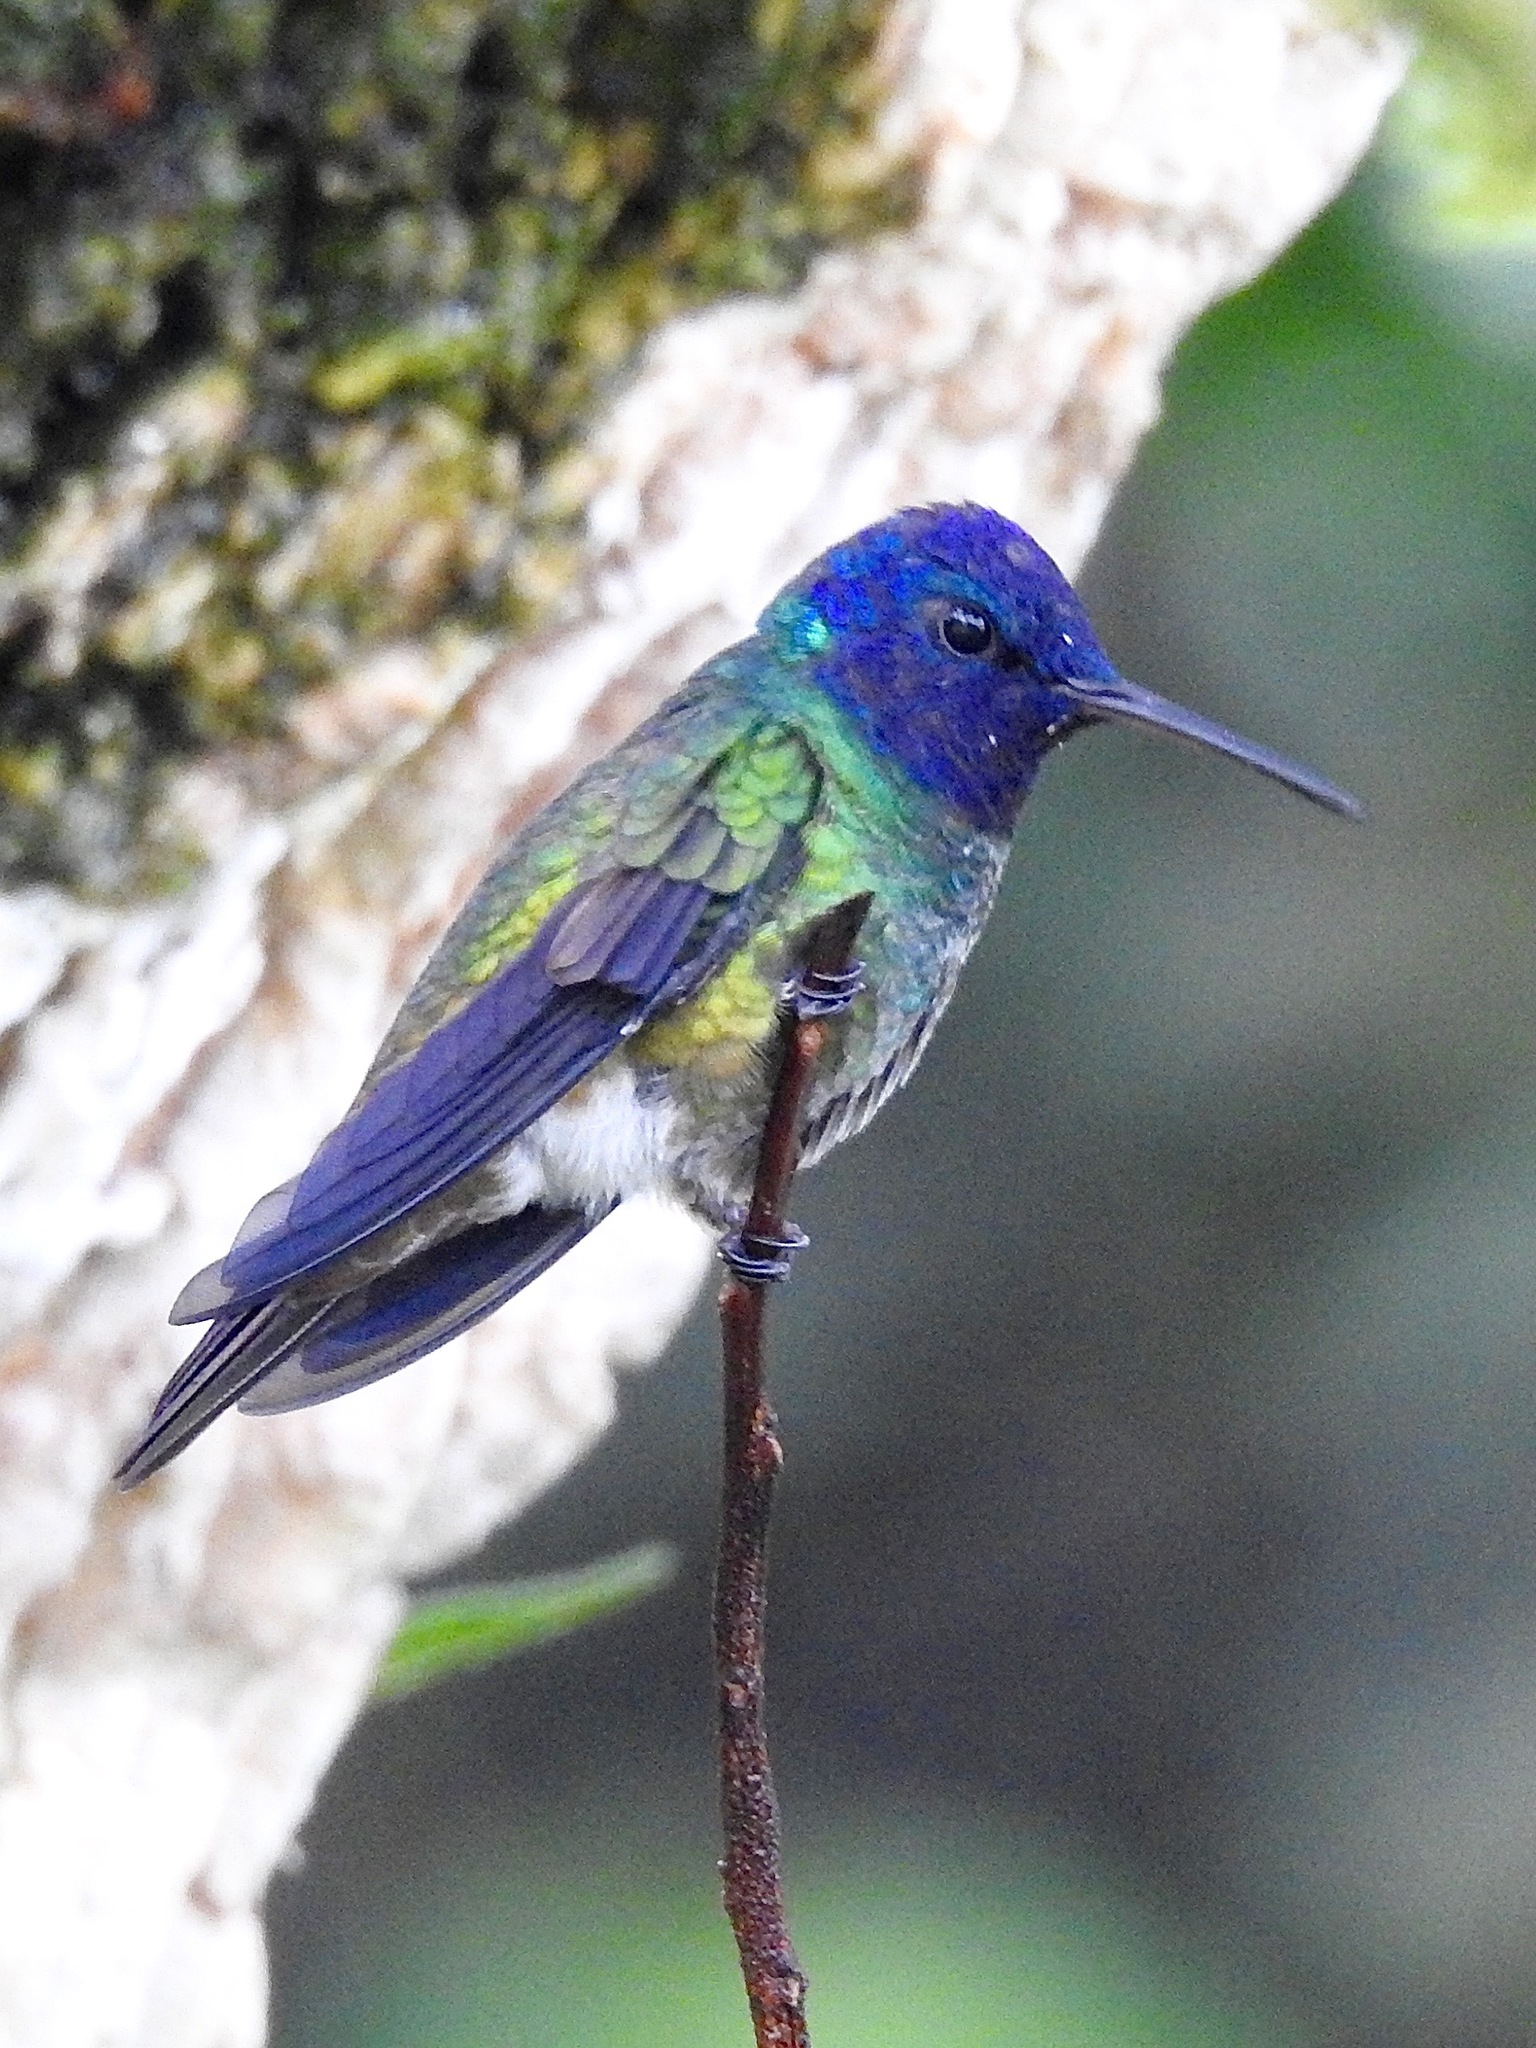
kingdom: Animalia
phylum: Chordata
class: Aves
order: Apodiformes
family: Trochilidae
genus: Chrysuronia
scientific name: Chrysuronia oenone
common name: Golden-tailed sapphire
